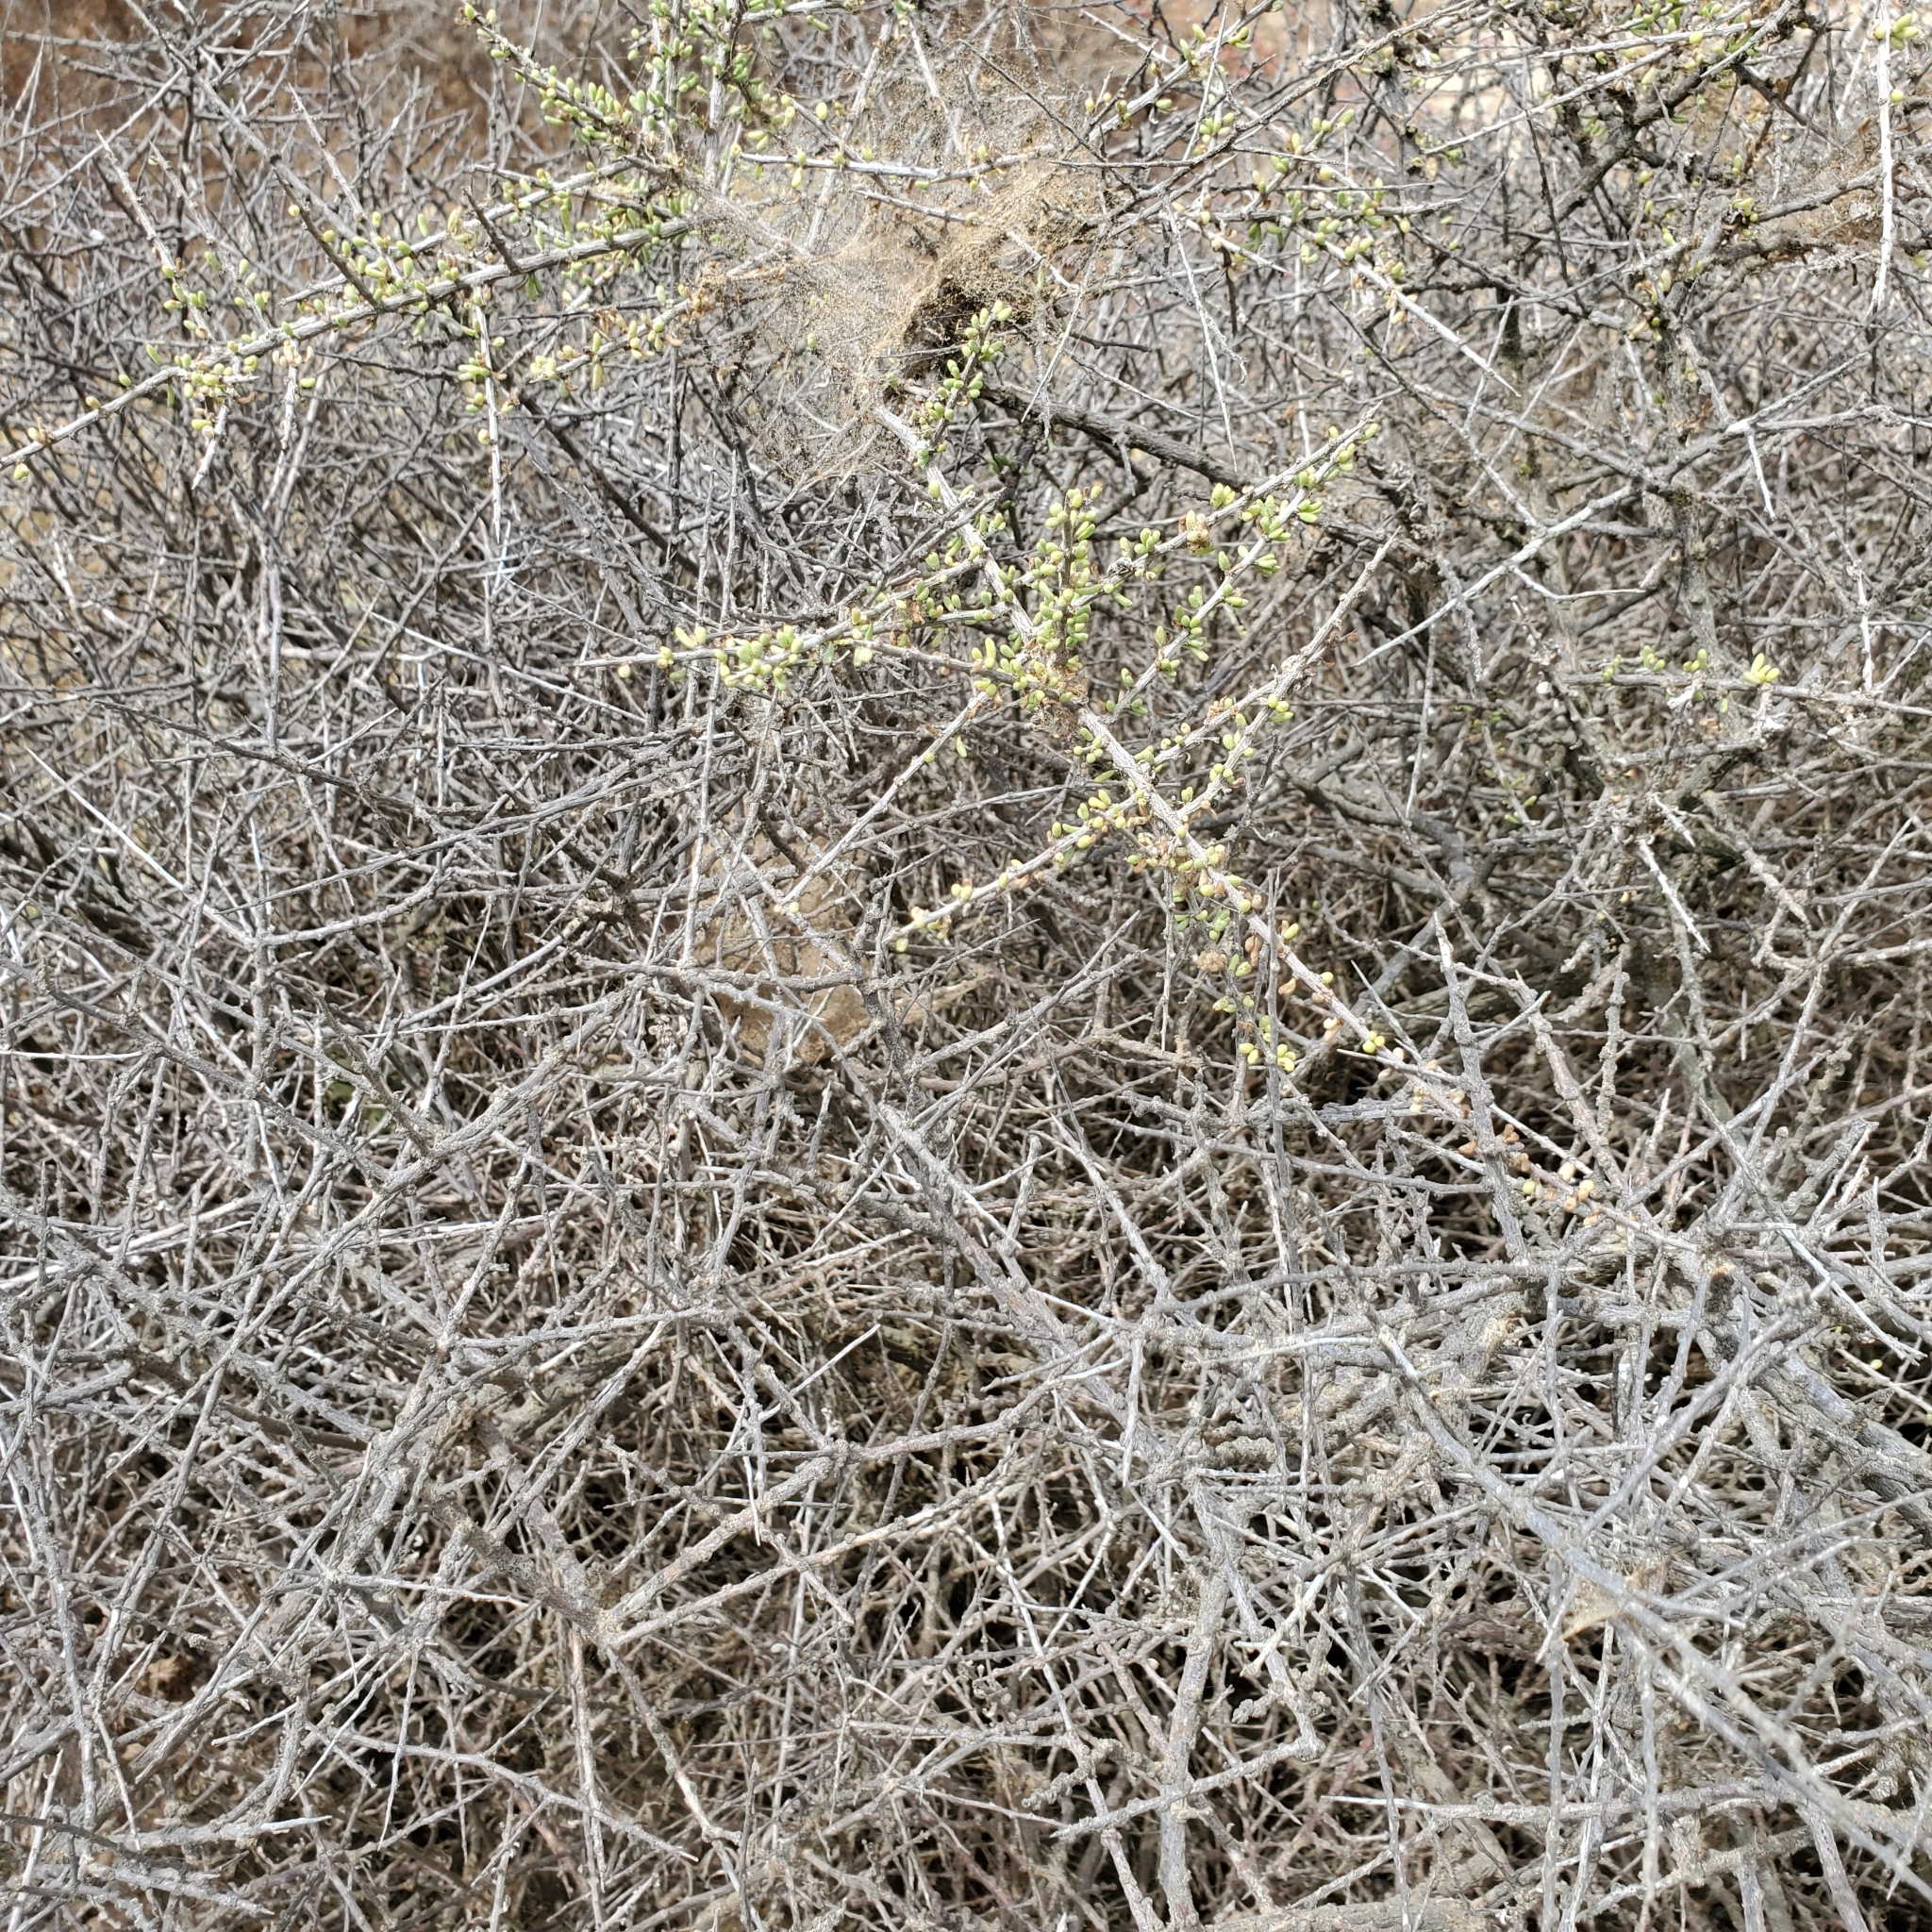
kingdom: Plantae
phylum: Tracheophyta
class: Magnoliopsida
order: Solanales
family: Solanaceae
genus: Lycium
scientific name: Lycium californicum
